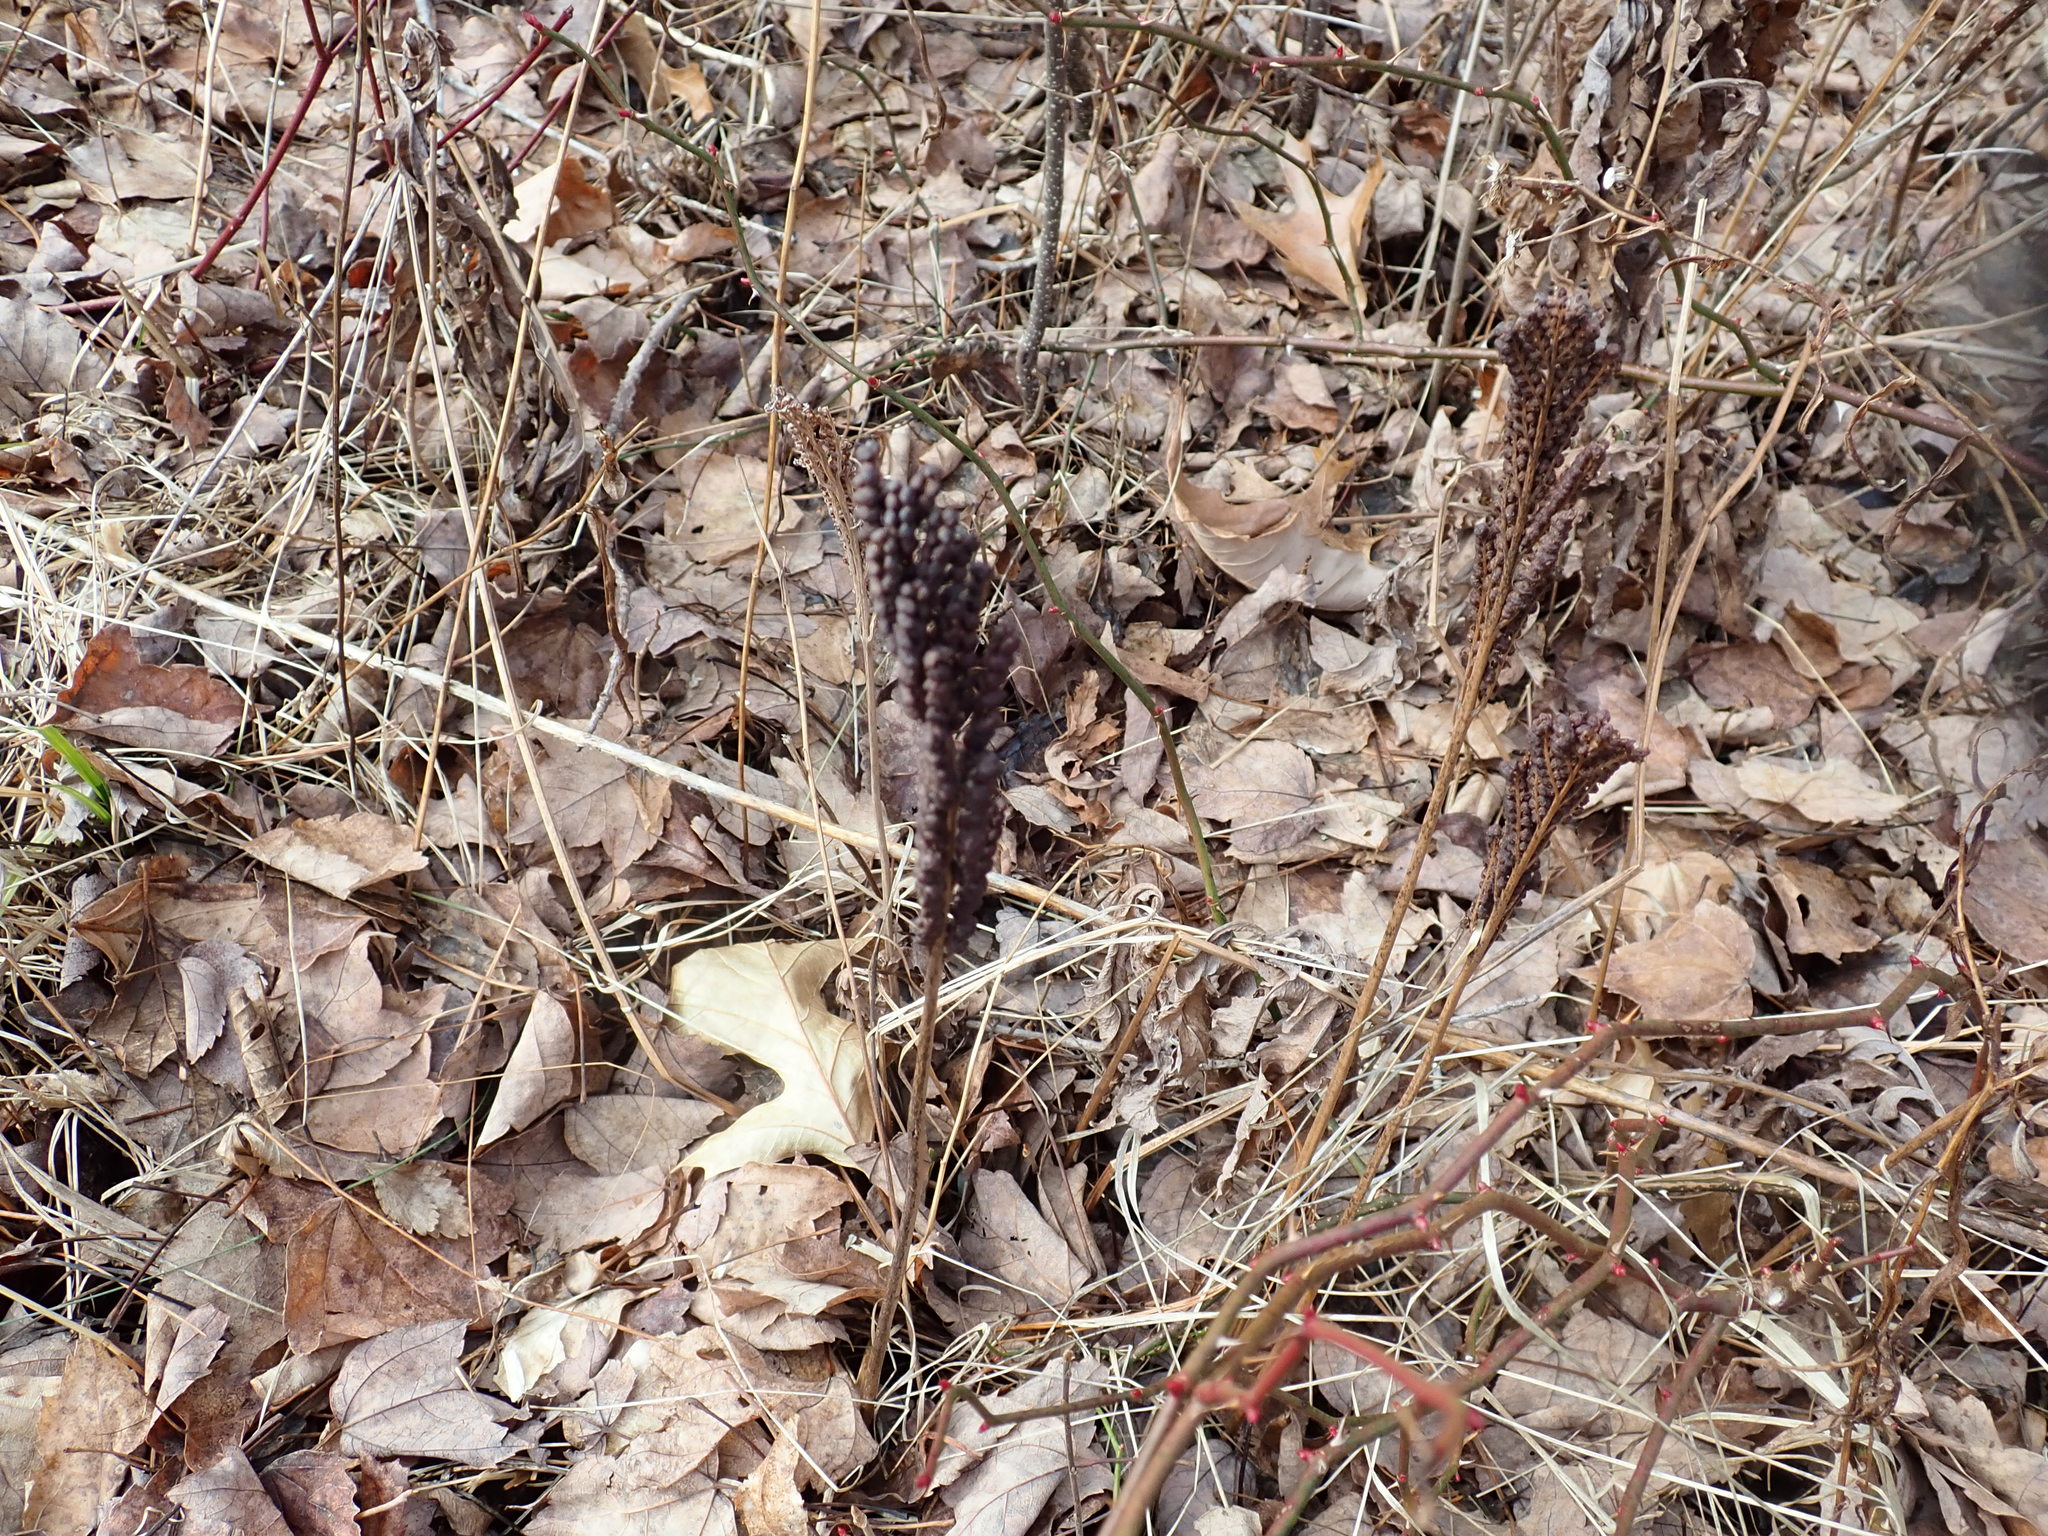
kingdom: Plantae
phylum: Tracheophyta
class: Polypodiopsida
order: Polypodiales
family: Onocleaceae
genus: Onoclea
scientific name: Onoclea sensibilis
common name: Sensitive fern
